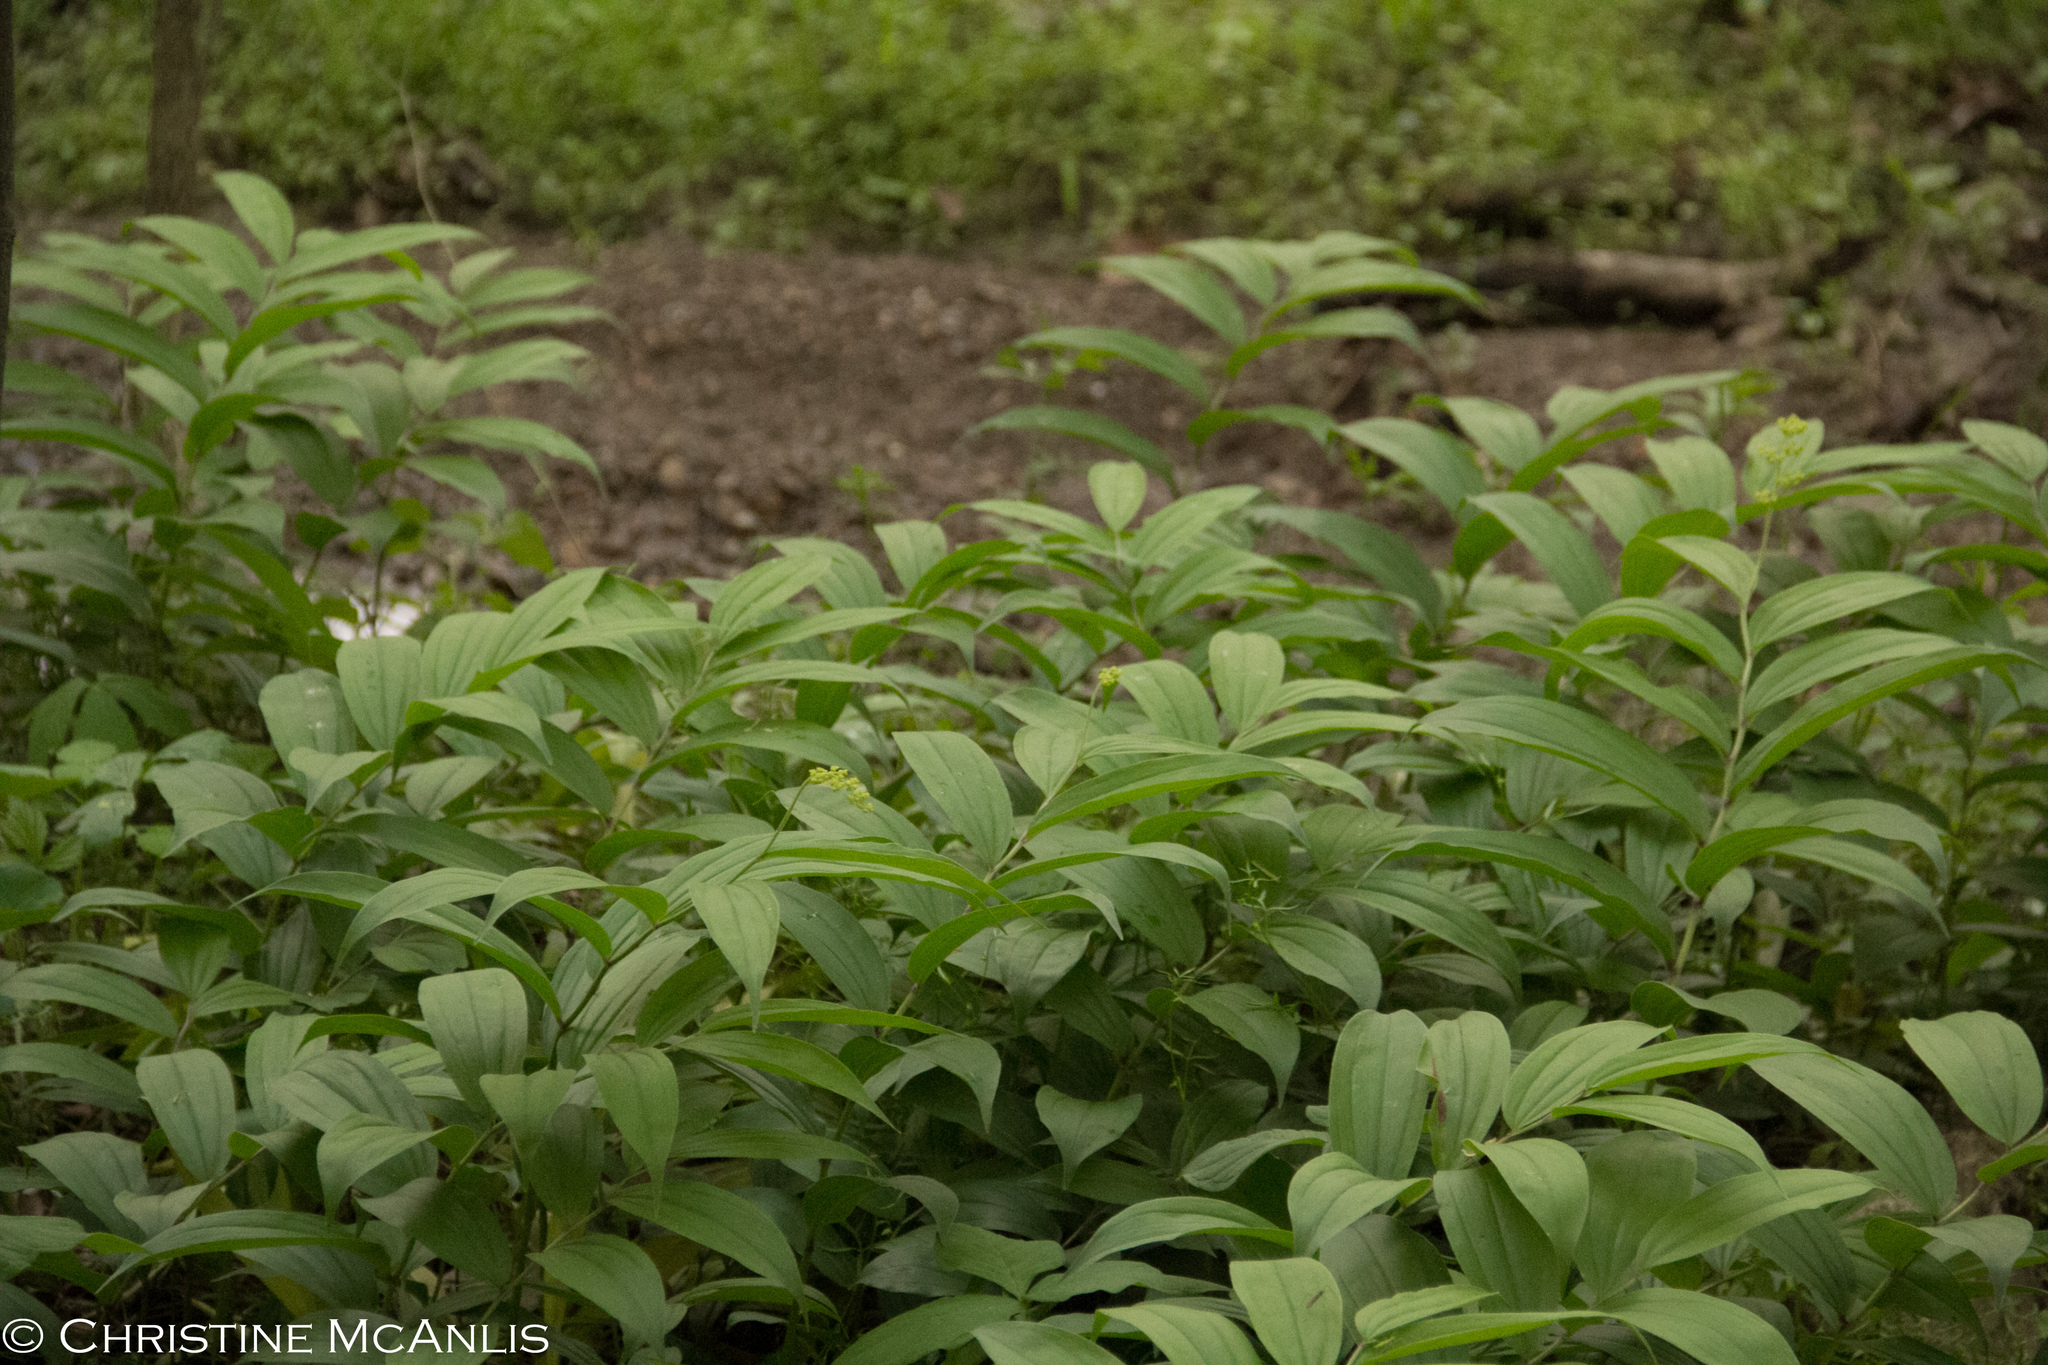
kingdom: Plantae
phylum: Tracheophyta
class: Liliopsida
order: Asparagales
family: Asparagaceae
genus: Maianthemum
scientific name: Maianthemum racemosum
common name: False spikenard
